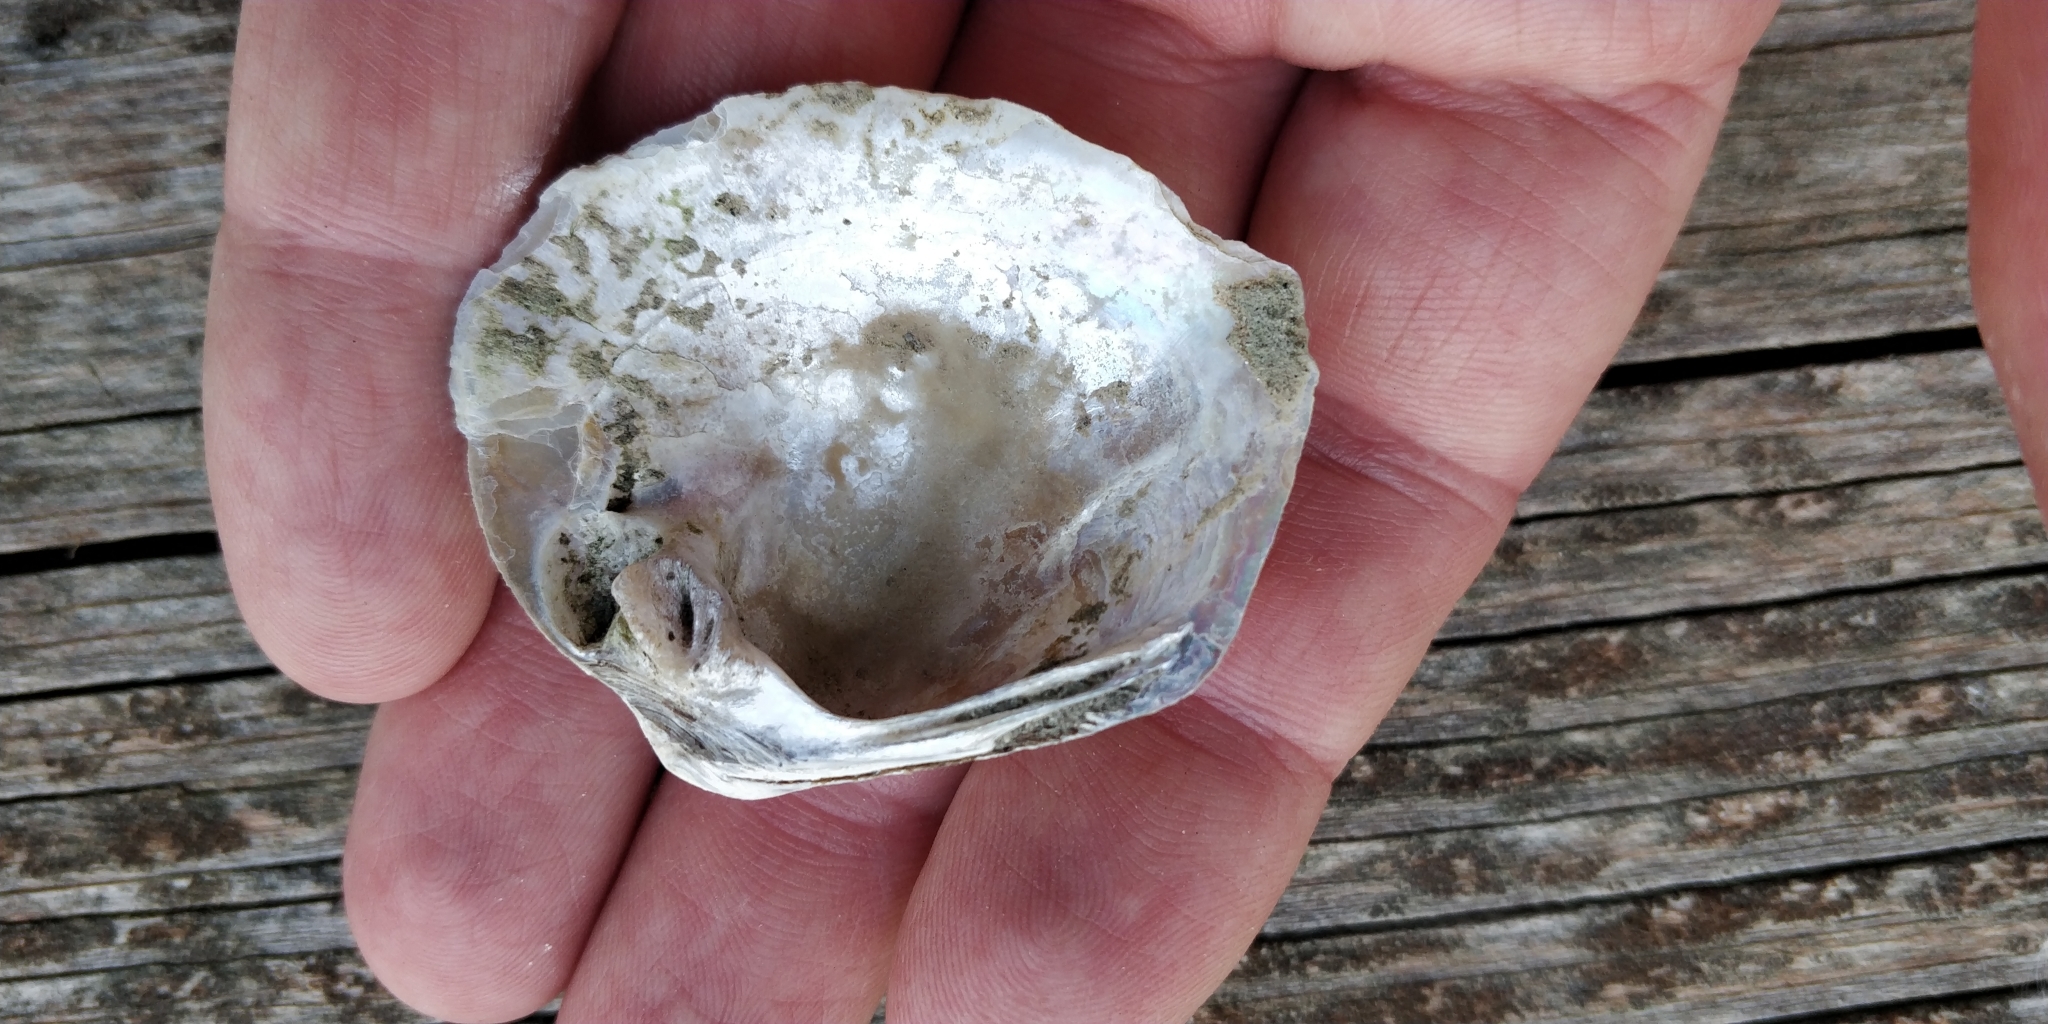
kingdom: Animalia
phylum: Mollusca
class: Bivalvia
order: Unionida
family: Unionidae
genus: Cyclonaias
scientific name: Cyclonaias pustulosa
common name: Pimpleback
